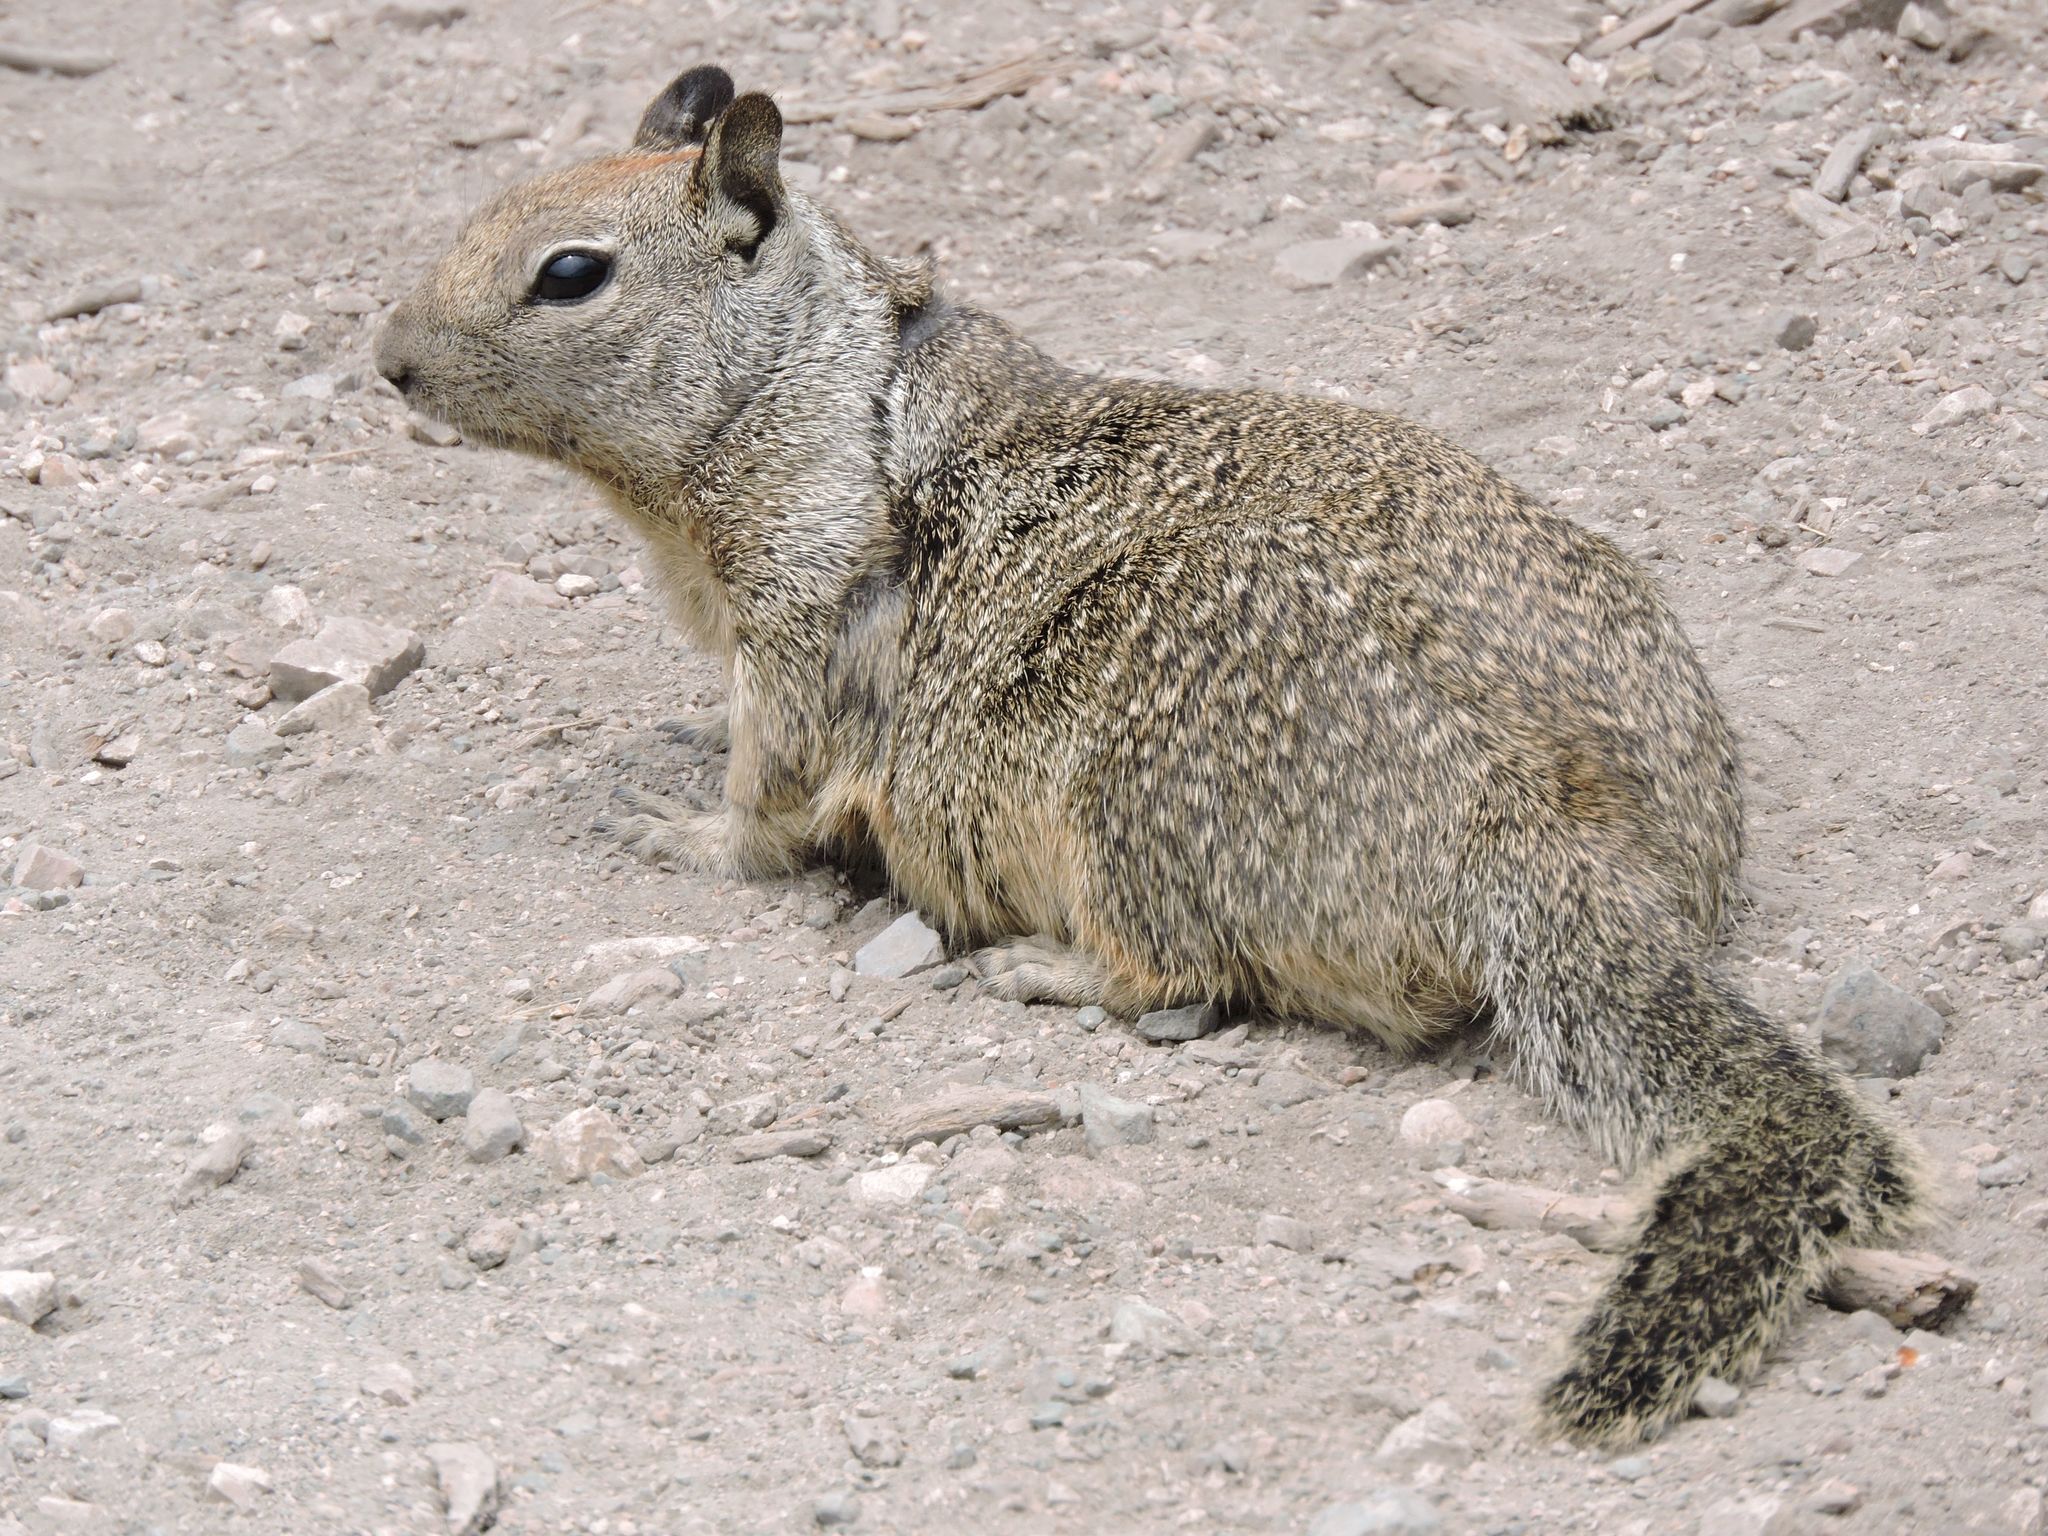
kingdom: Animalia
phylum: Chordata
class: Mammalia
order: Rodentia
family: Sciuridae
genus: Otospermophilus
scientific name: Otospermophilus beecheyi
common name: California ground squirrel
